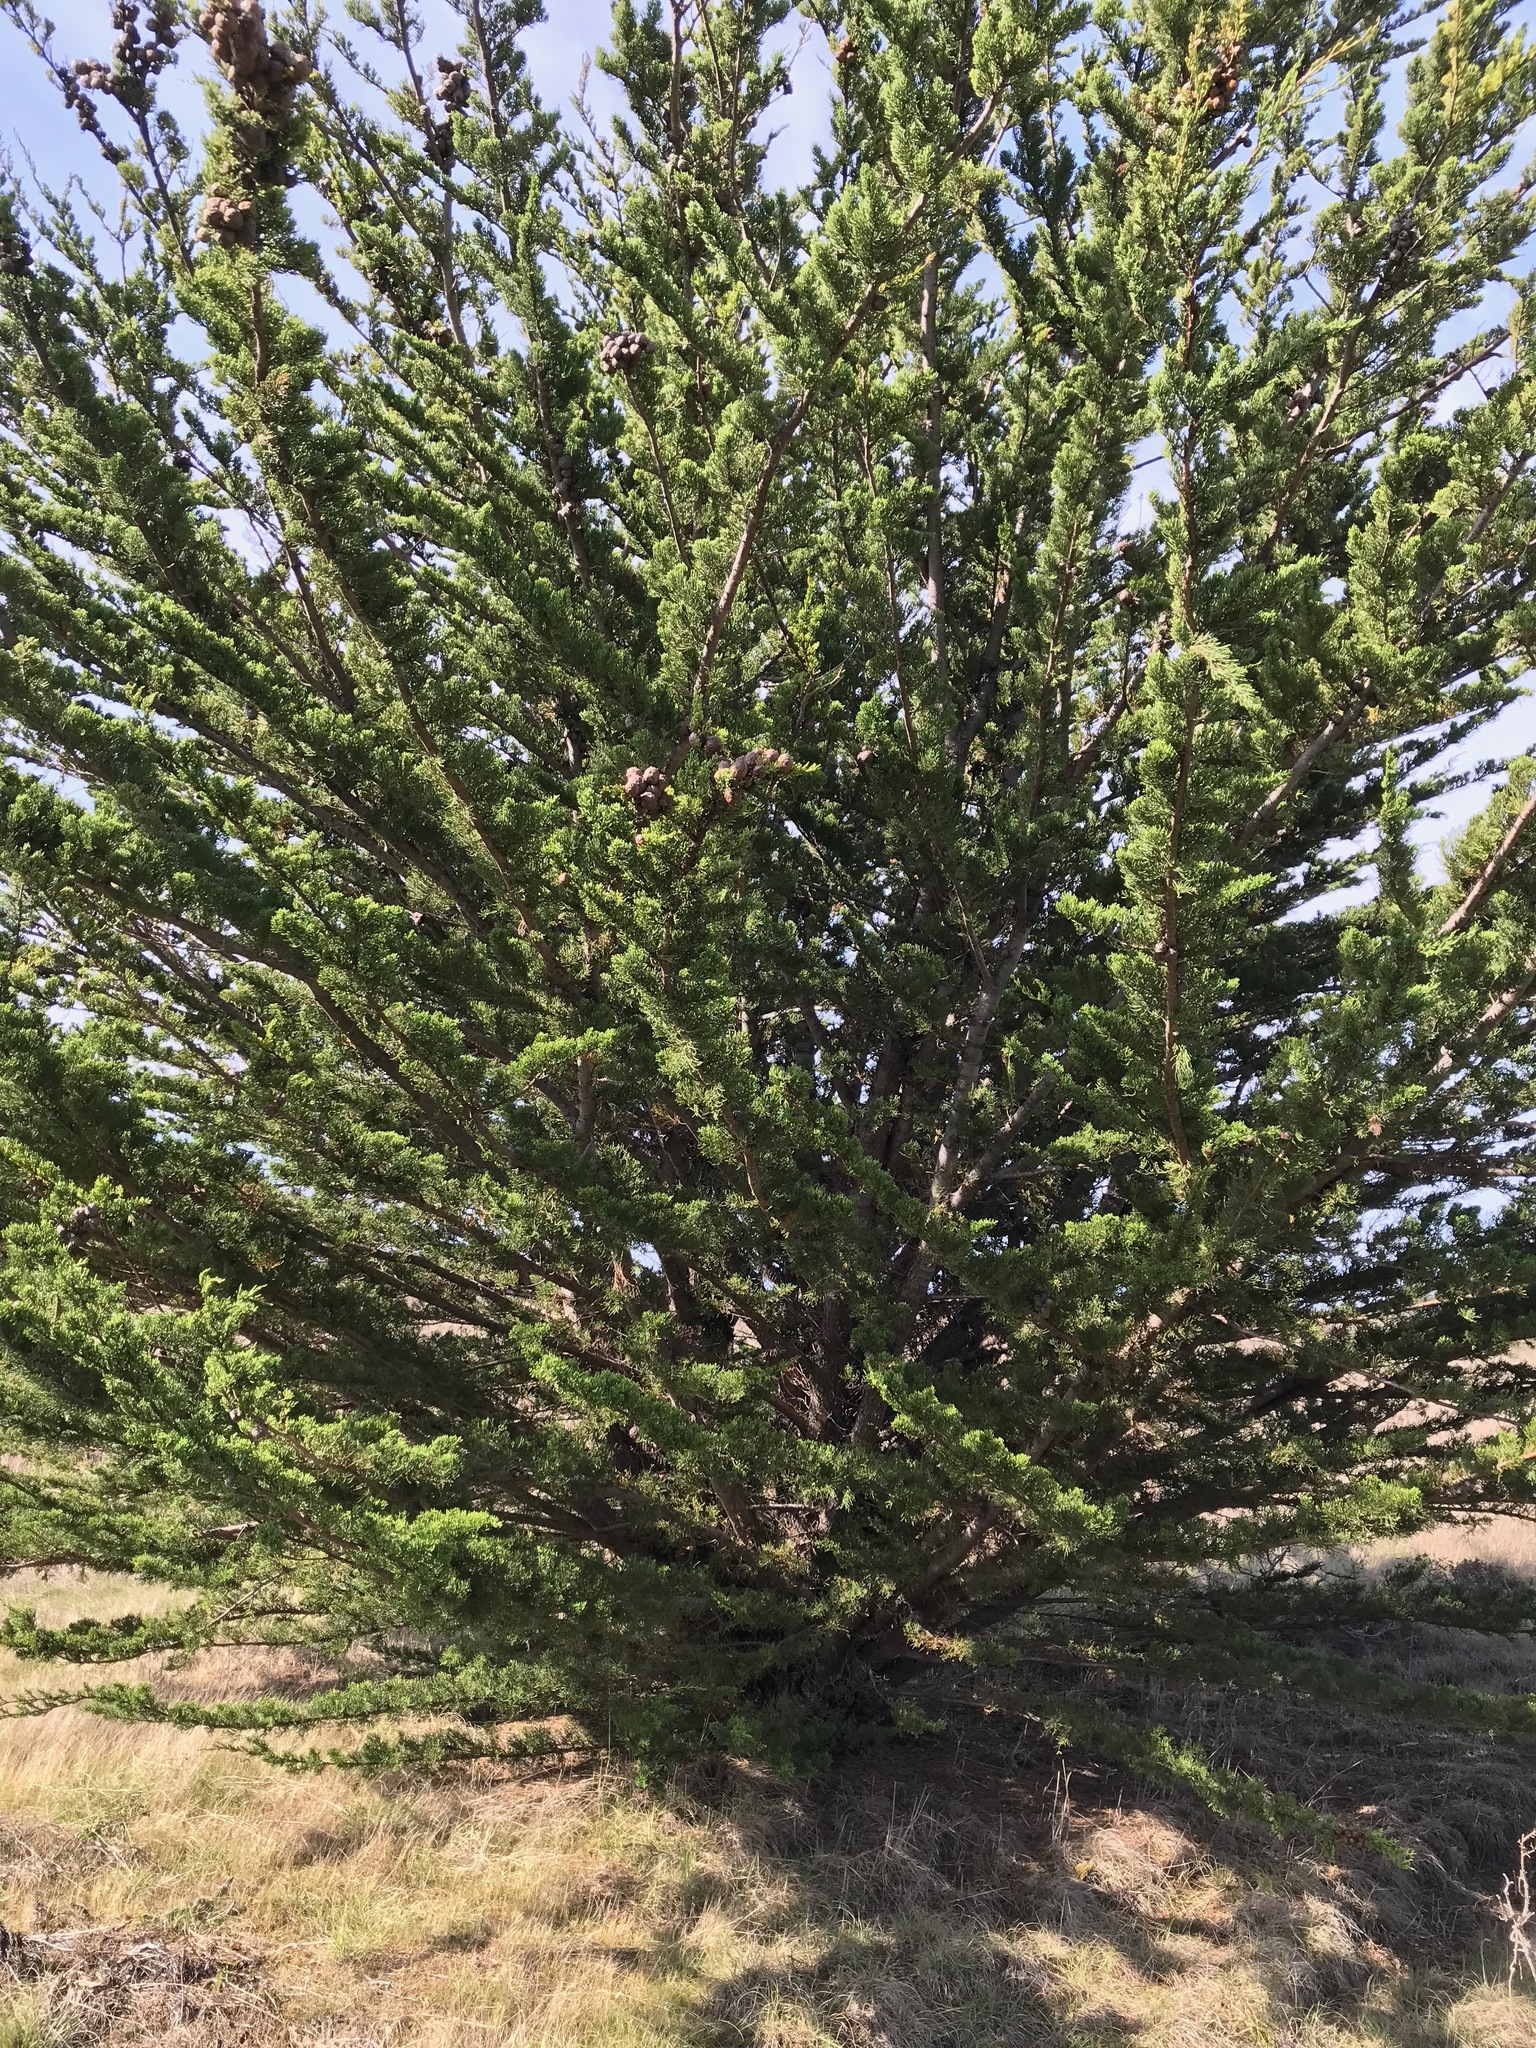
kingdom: Plantae
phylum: Tracheophyta
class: Pinopsida
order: Pinales
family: Cupressaceae
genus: Cupressus
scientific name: Cupressus macrocarpa
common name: Monterey cypress
